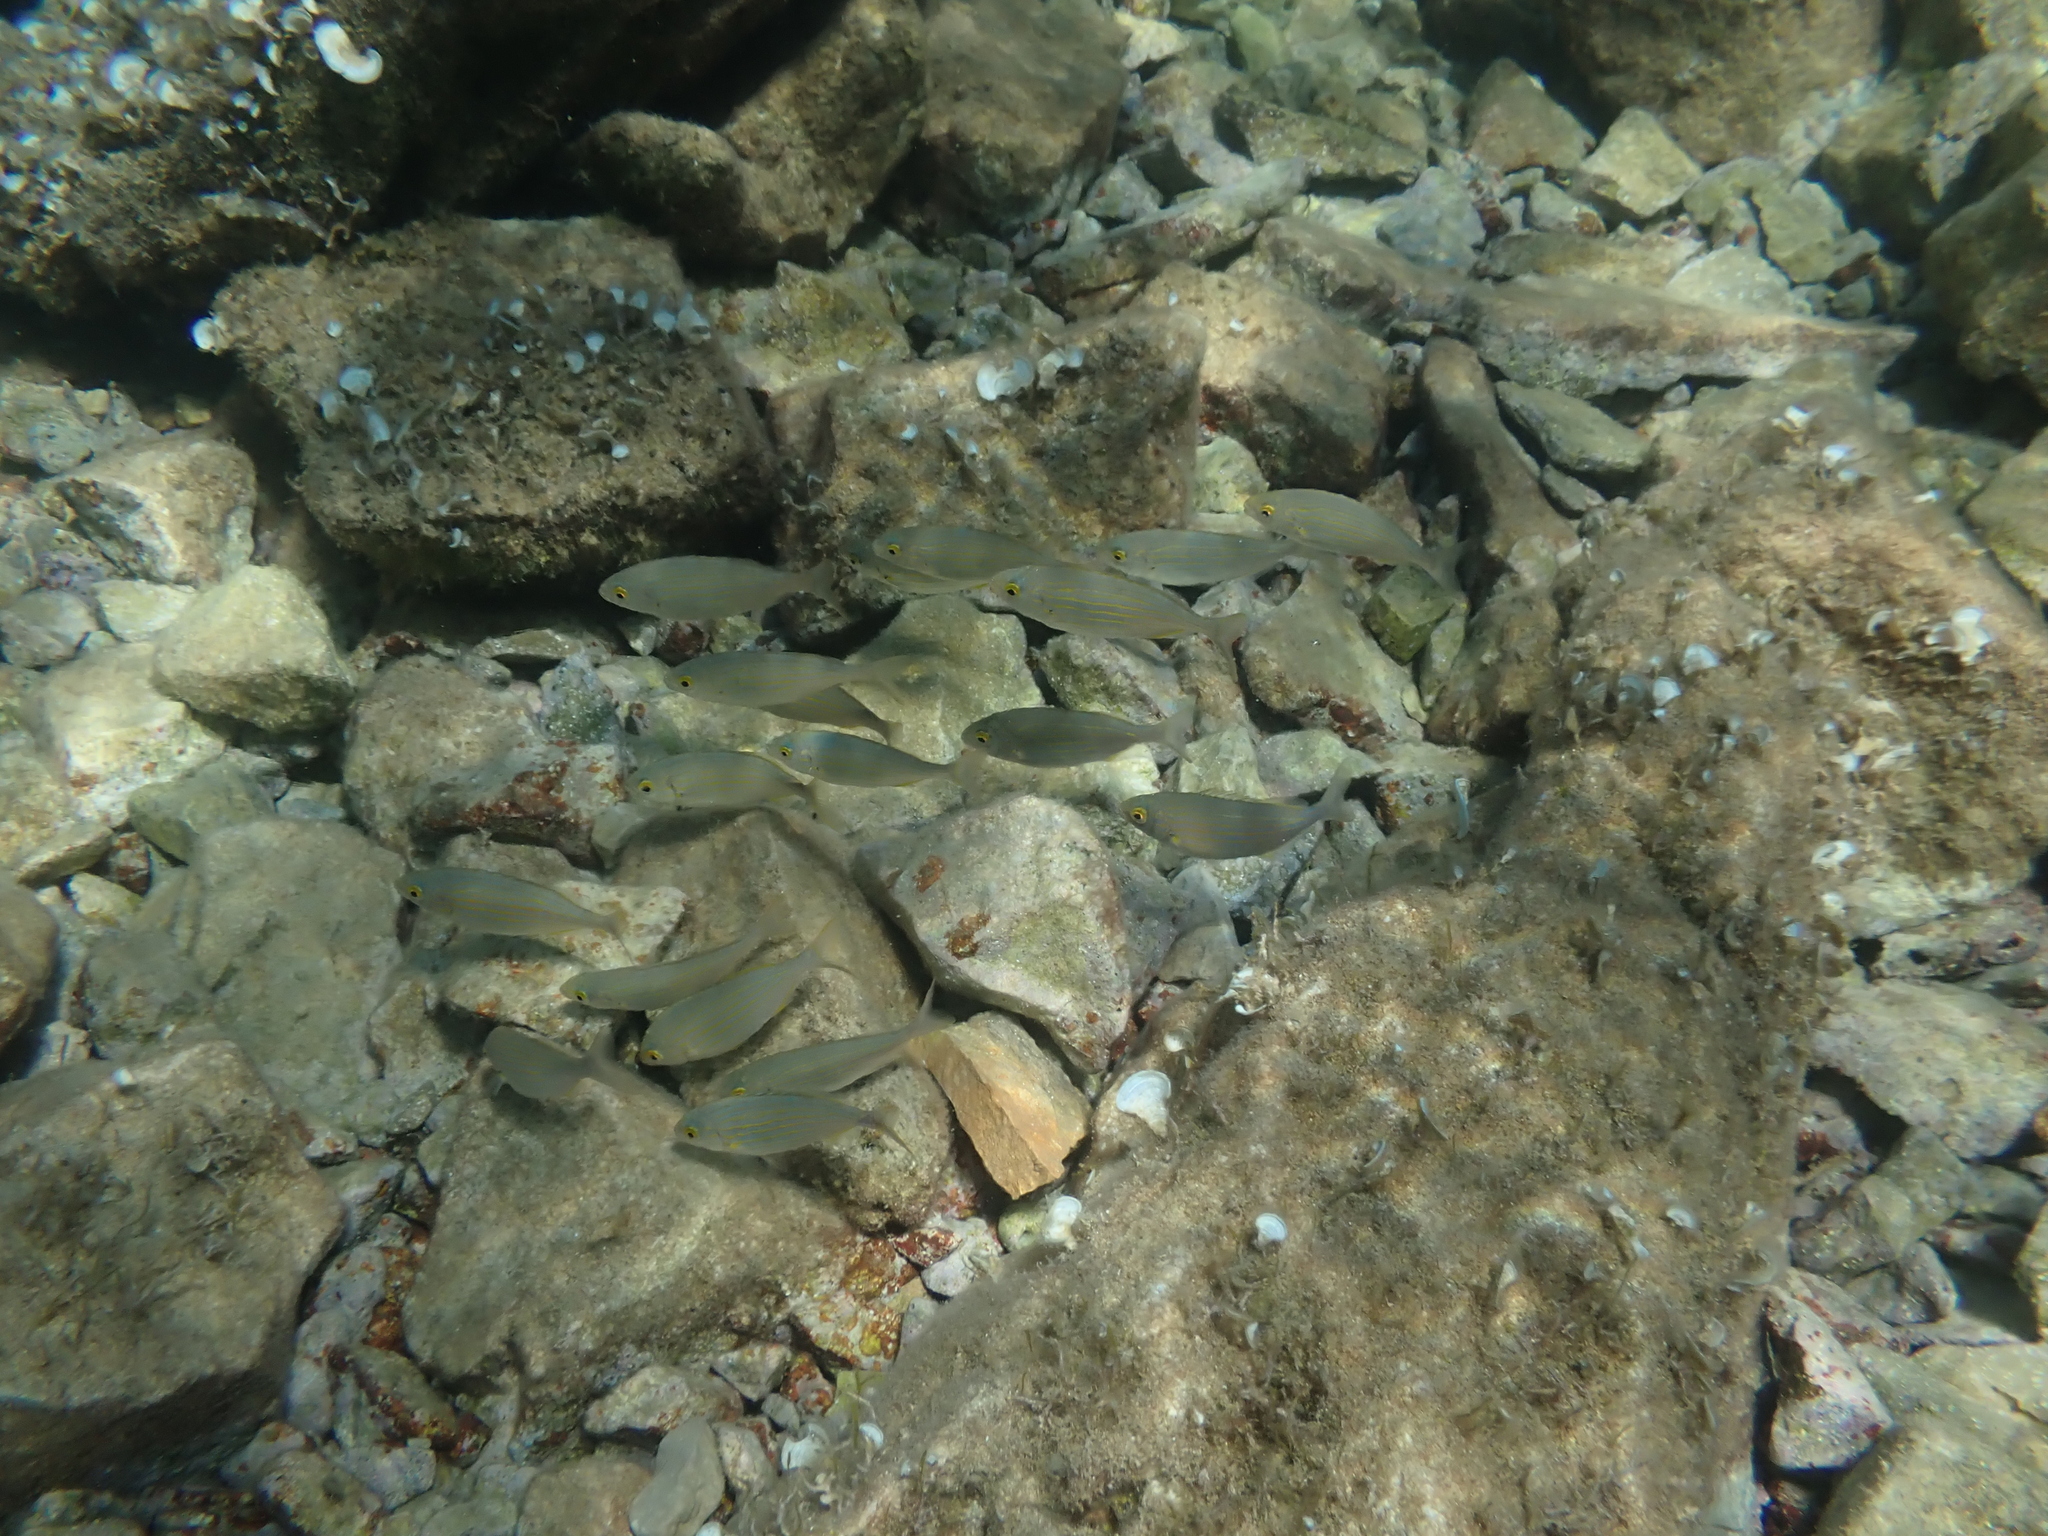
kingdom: Animalia
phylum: Chordata
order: Perciformes
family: Sparidae
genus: Sarpa
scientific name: Sarpa salpa
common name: Salema
